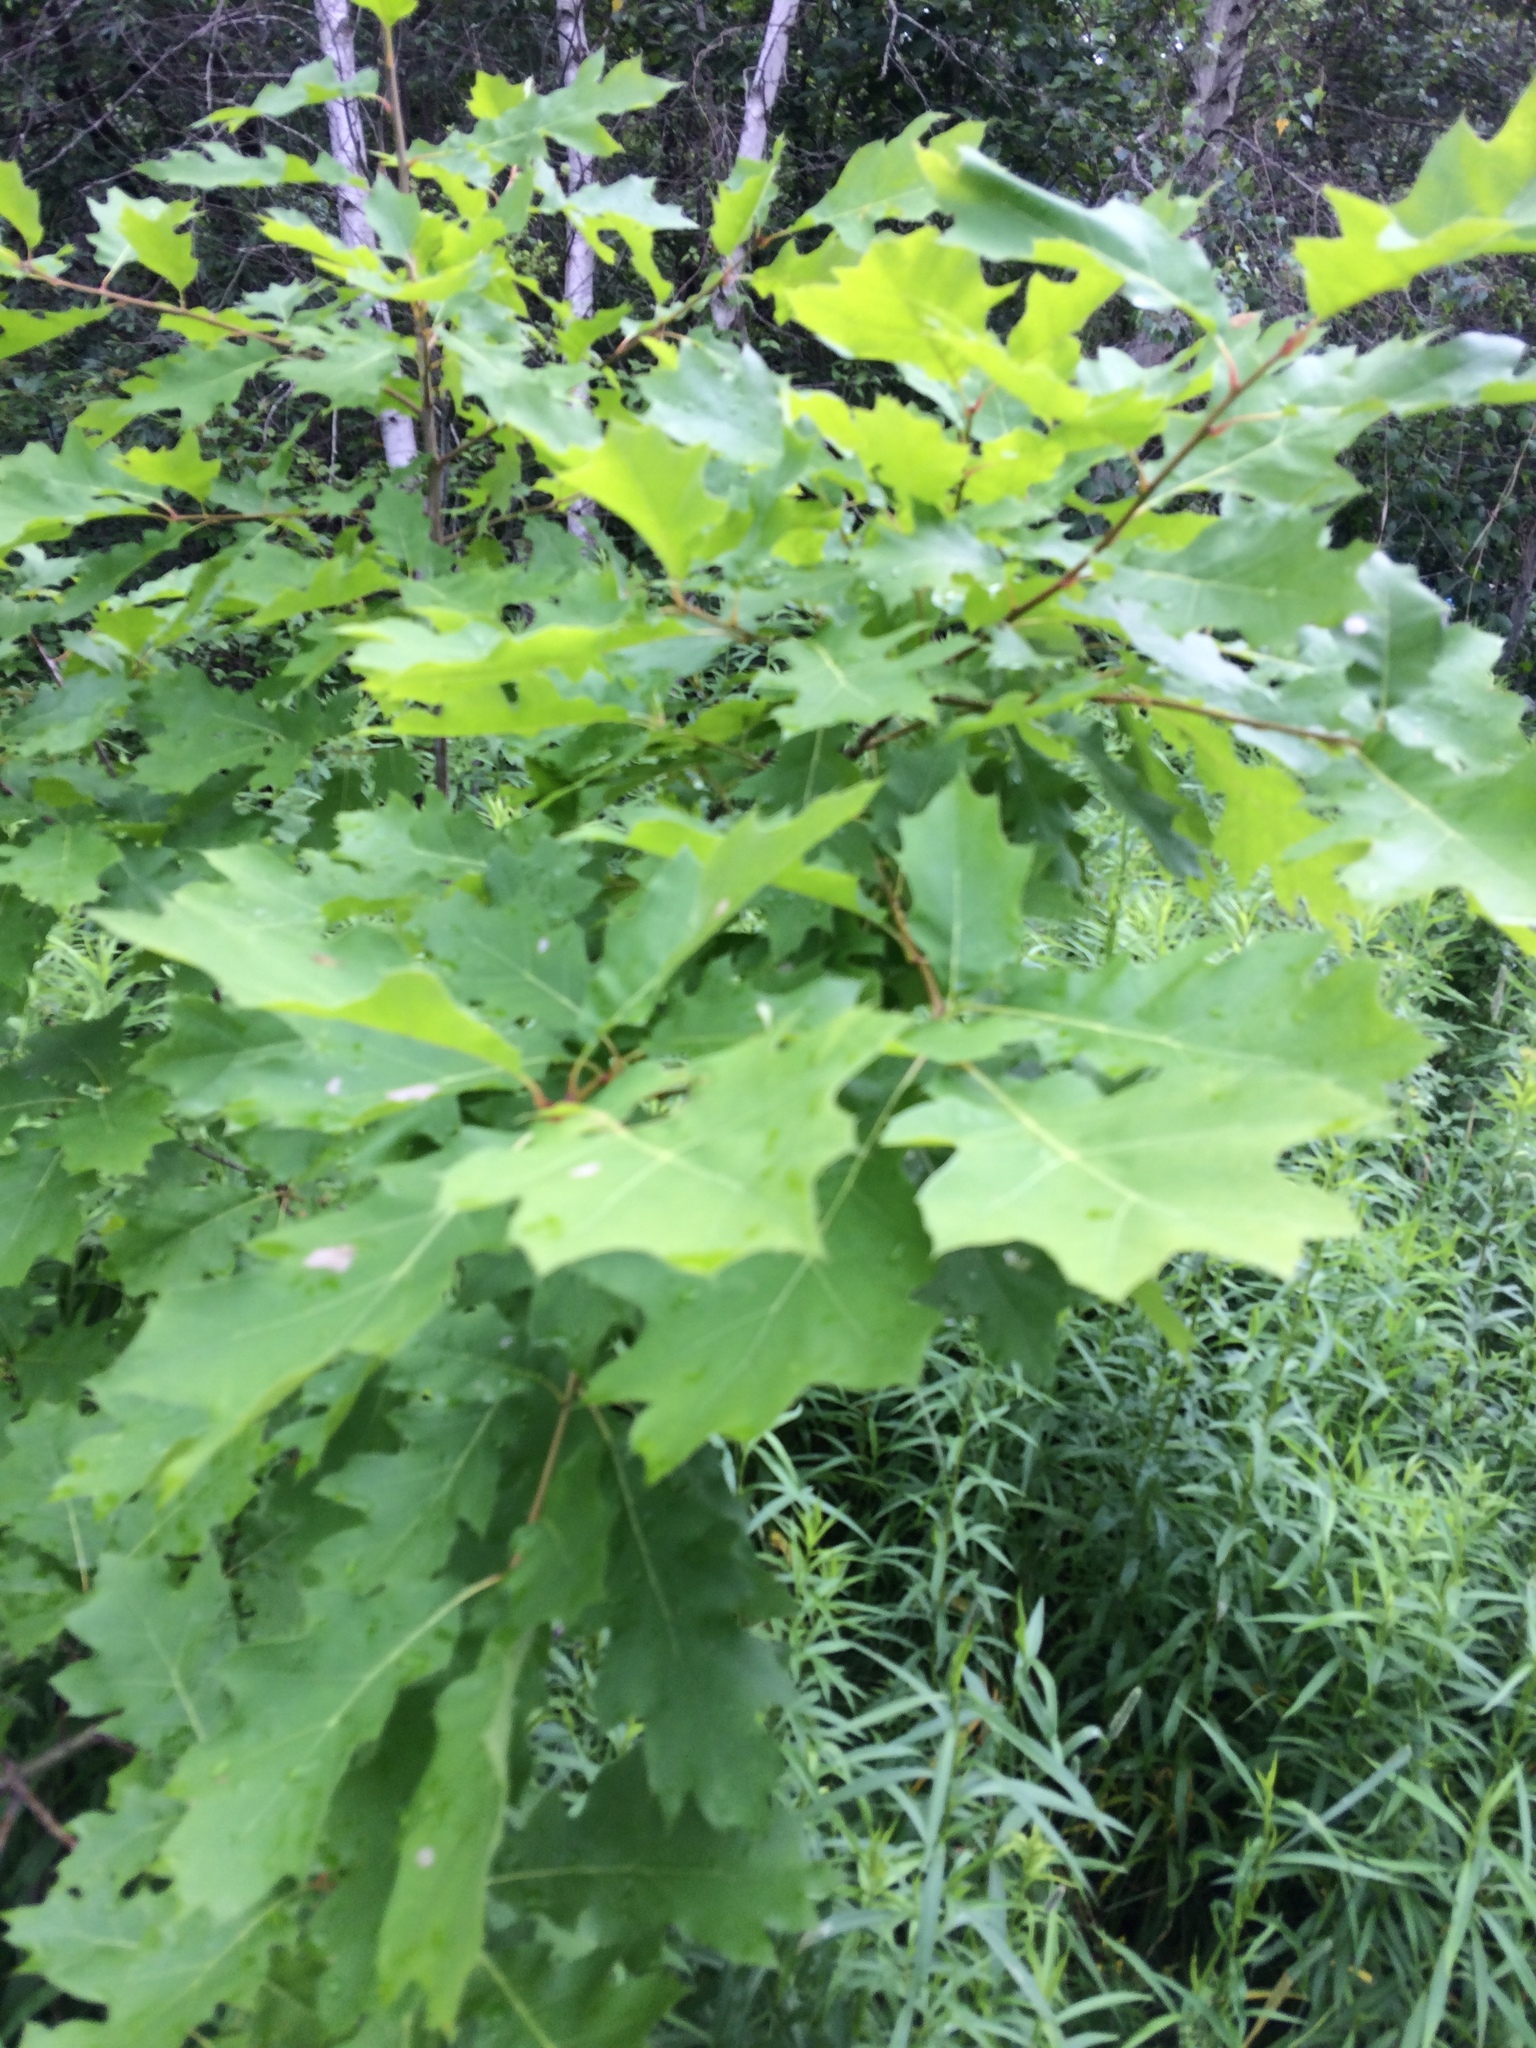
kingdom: Plantae
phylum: Tracheophyta
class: Magnoliopsida
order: Fagales
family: Fagaceae
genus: Quercus
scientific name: Quercus rubra
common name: Red oak
